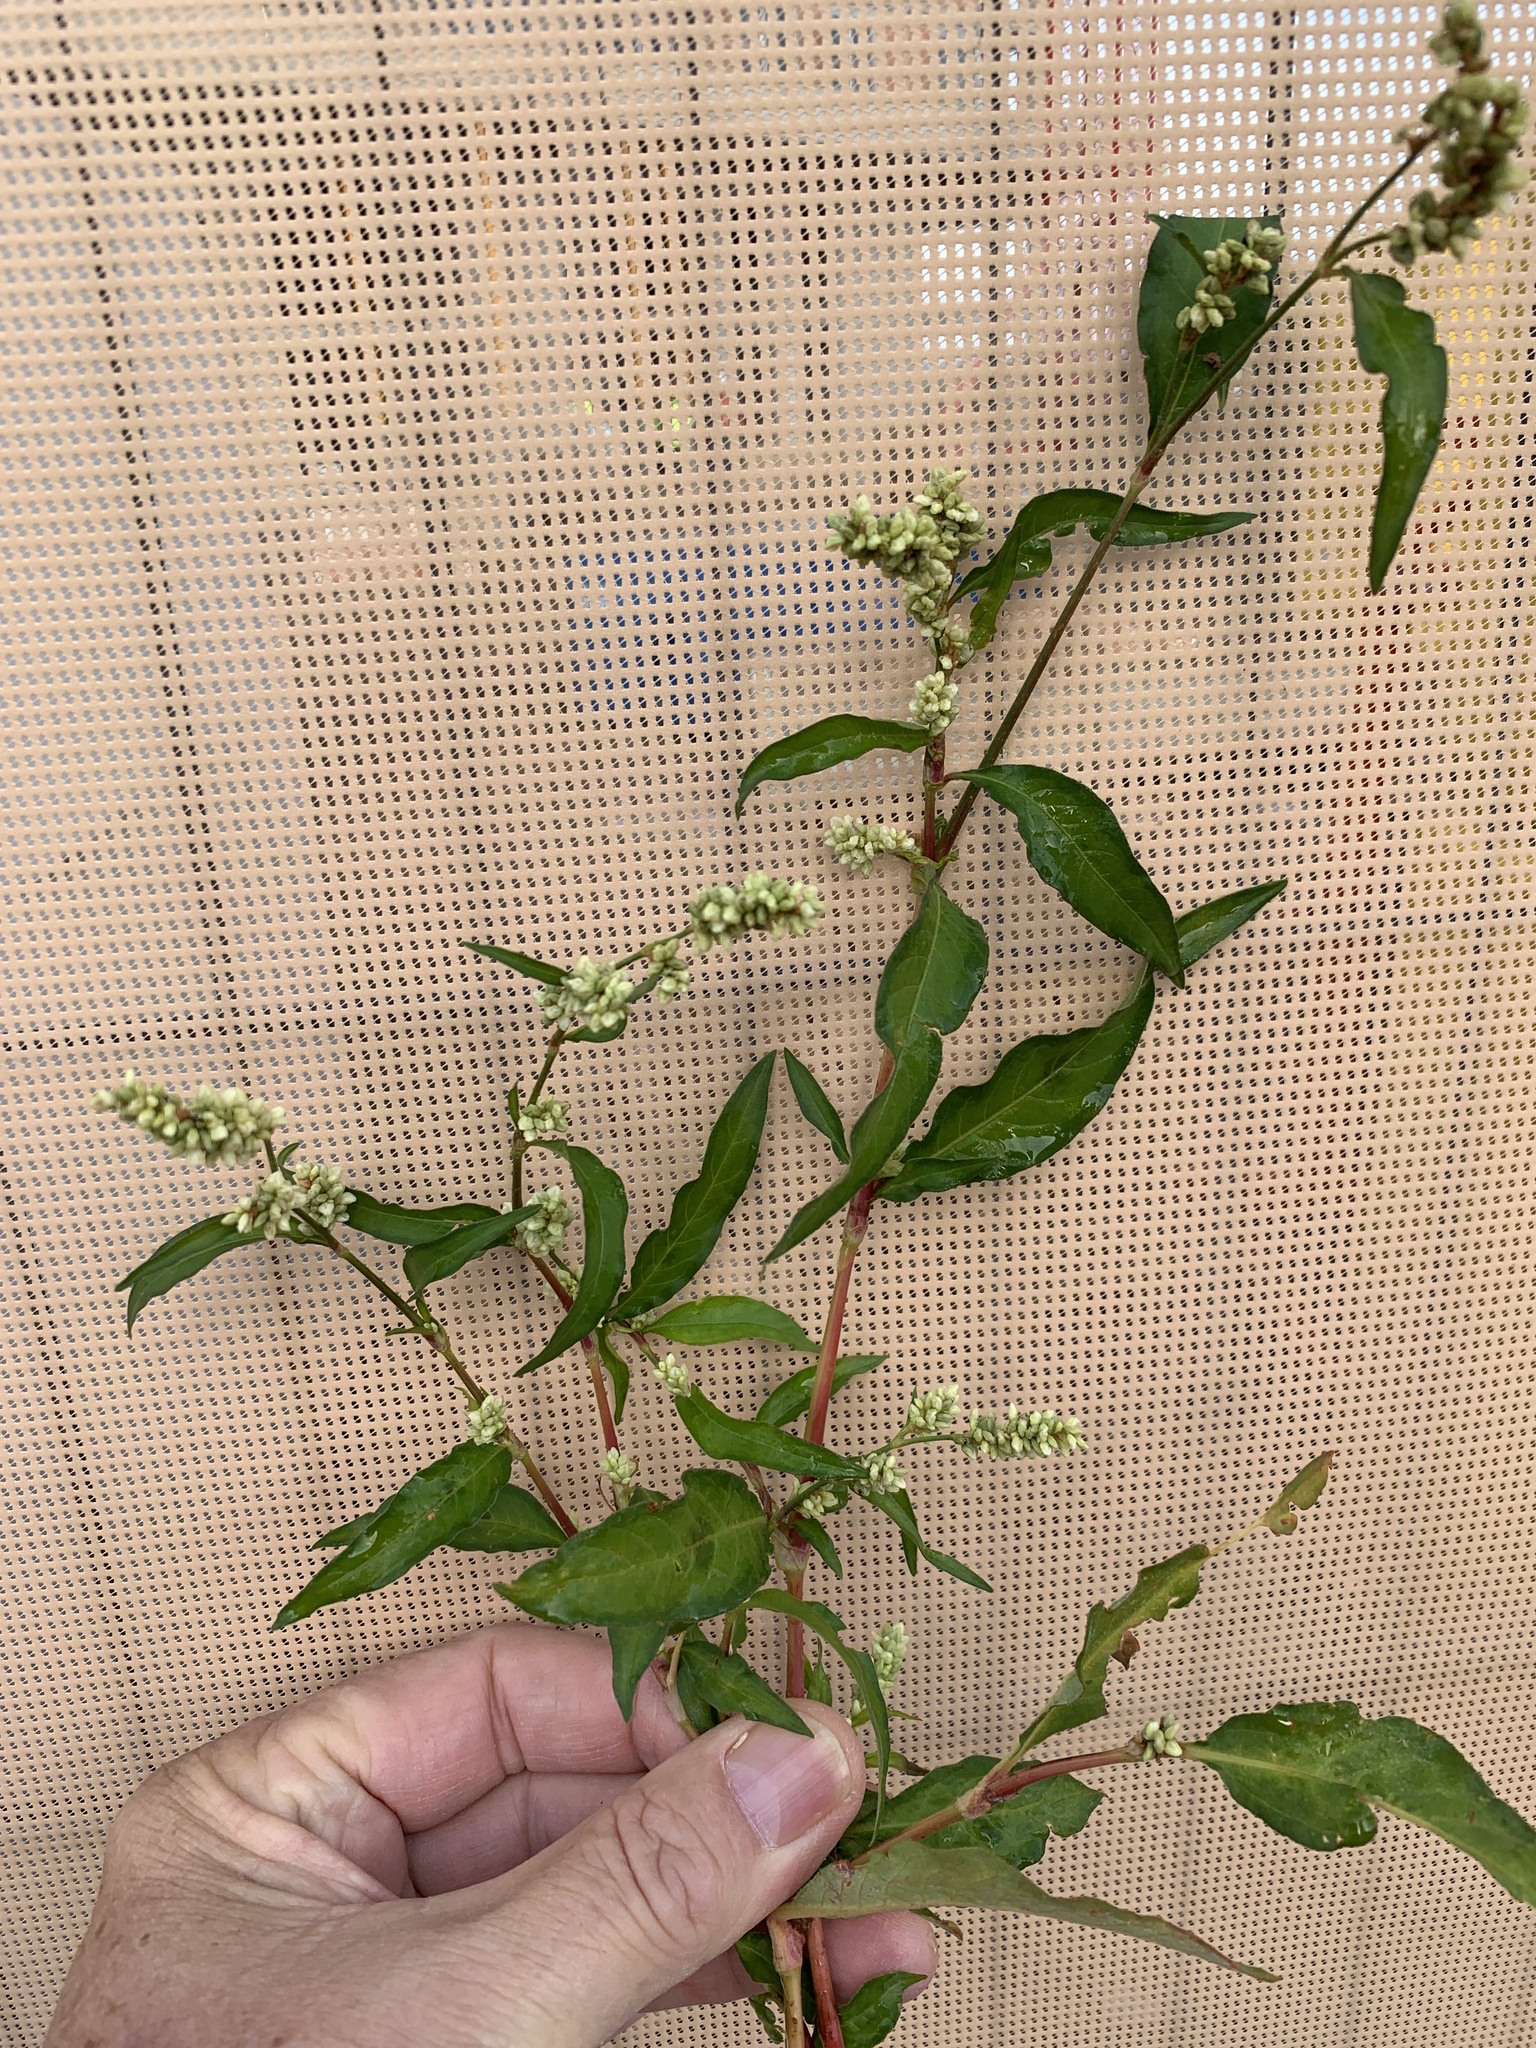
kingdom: Plantae
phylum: Tracheophyta
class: Magnoliopsida
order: Caryophyllales
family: Polygonaceae
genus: Persicaria
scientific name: Persicaria lapathifolia
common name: Curlytop knotweed
